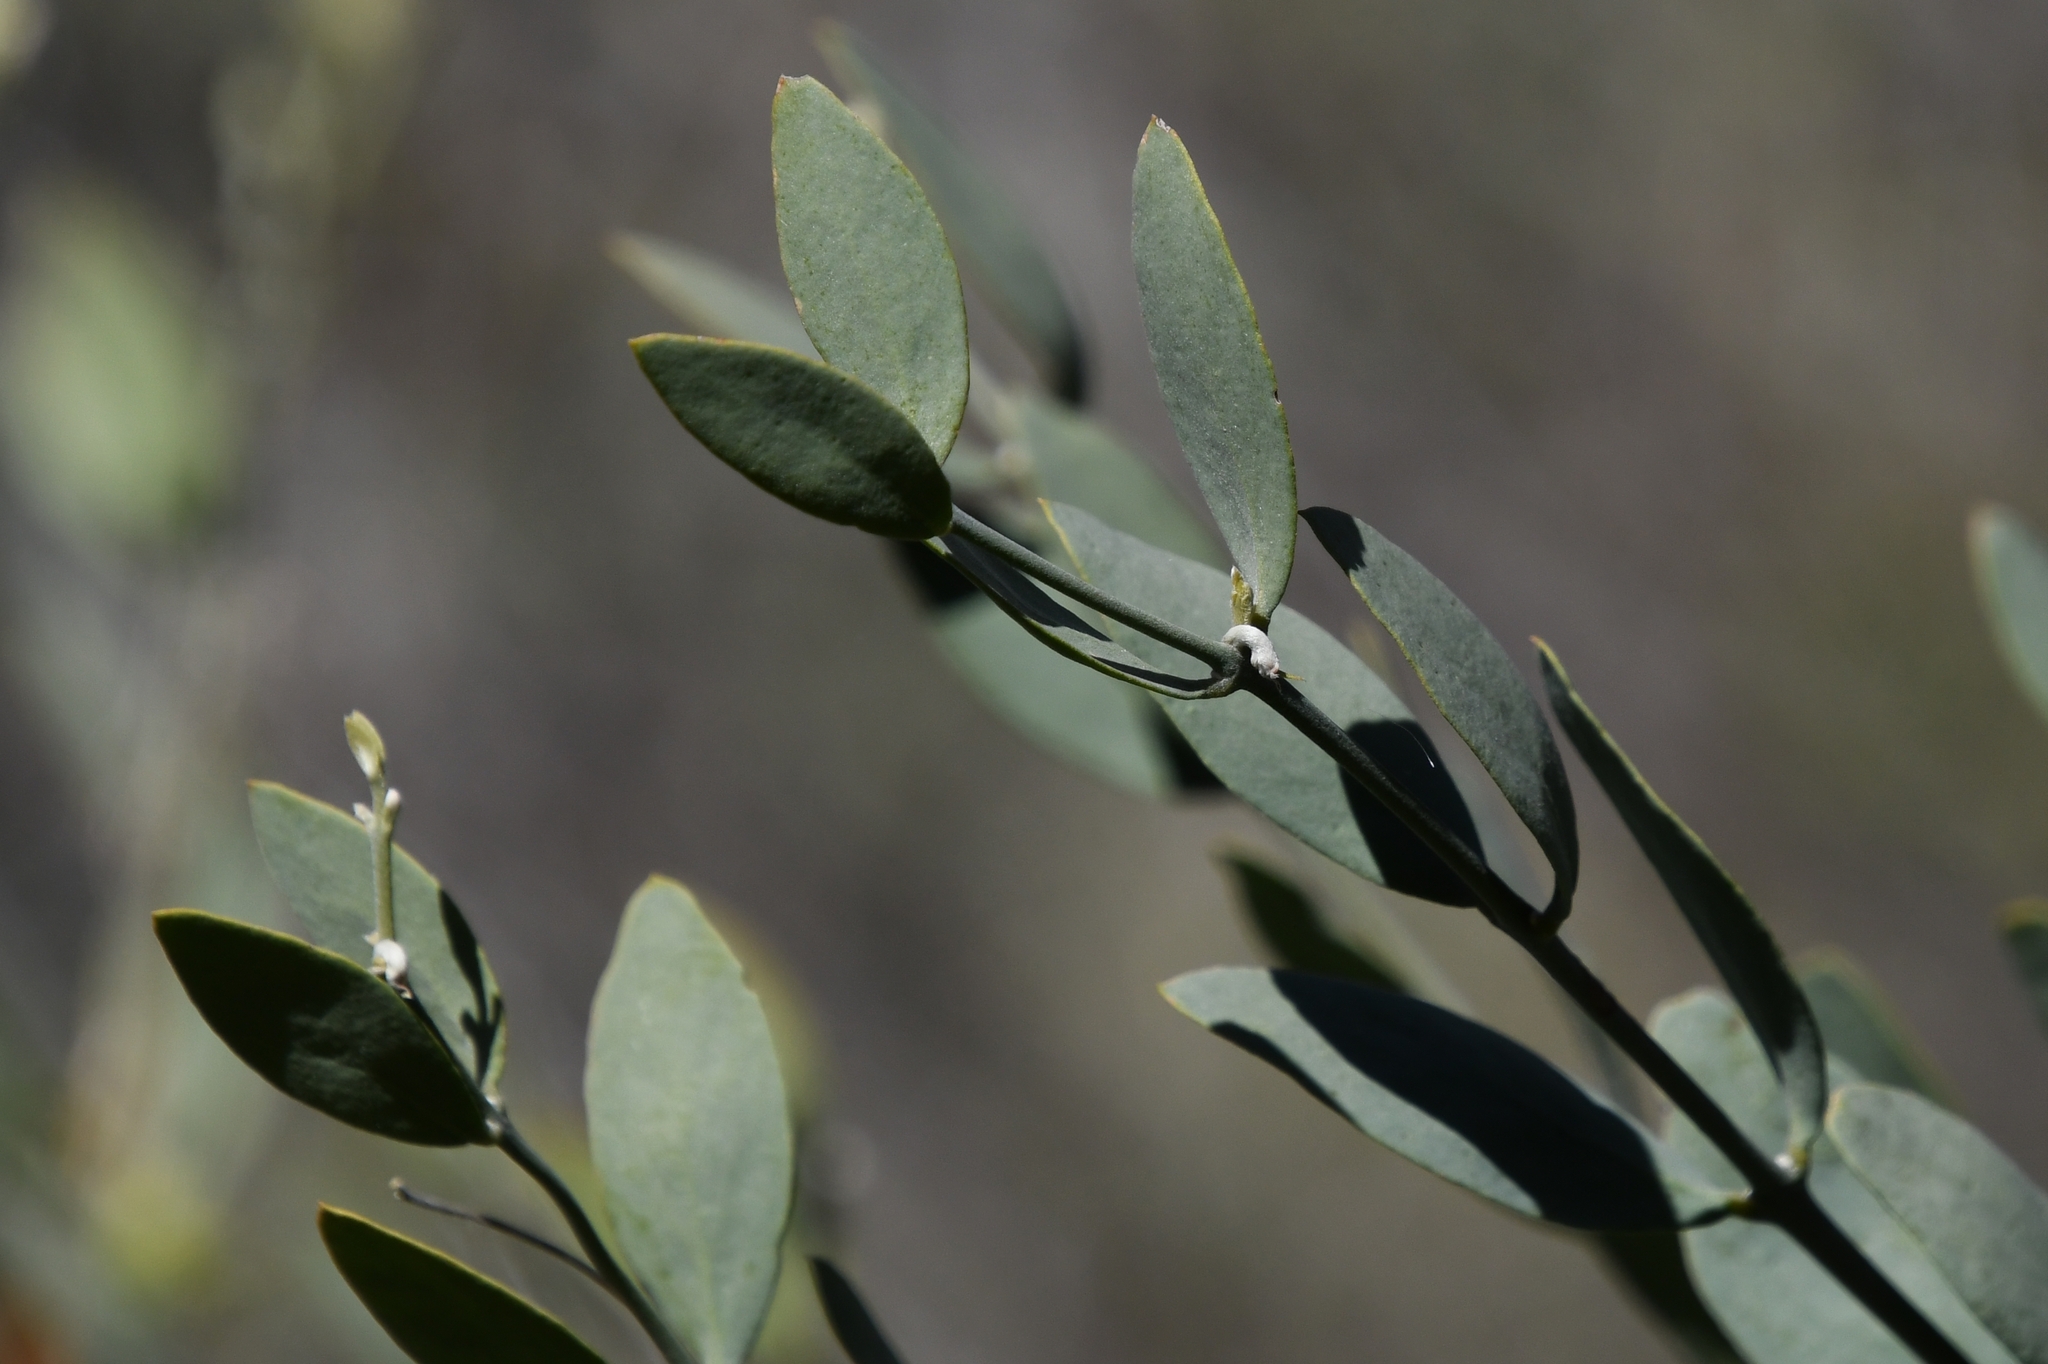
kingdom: Plantae
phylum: Tracheophyta
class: Magnoliopsida
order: Caryophyllales
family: Simmondsiaceae
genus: Simmondsia
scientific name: Simmondsia chinensis
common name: Jojoba
